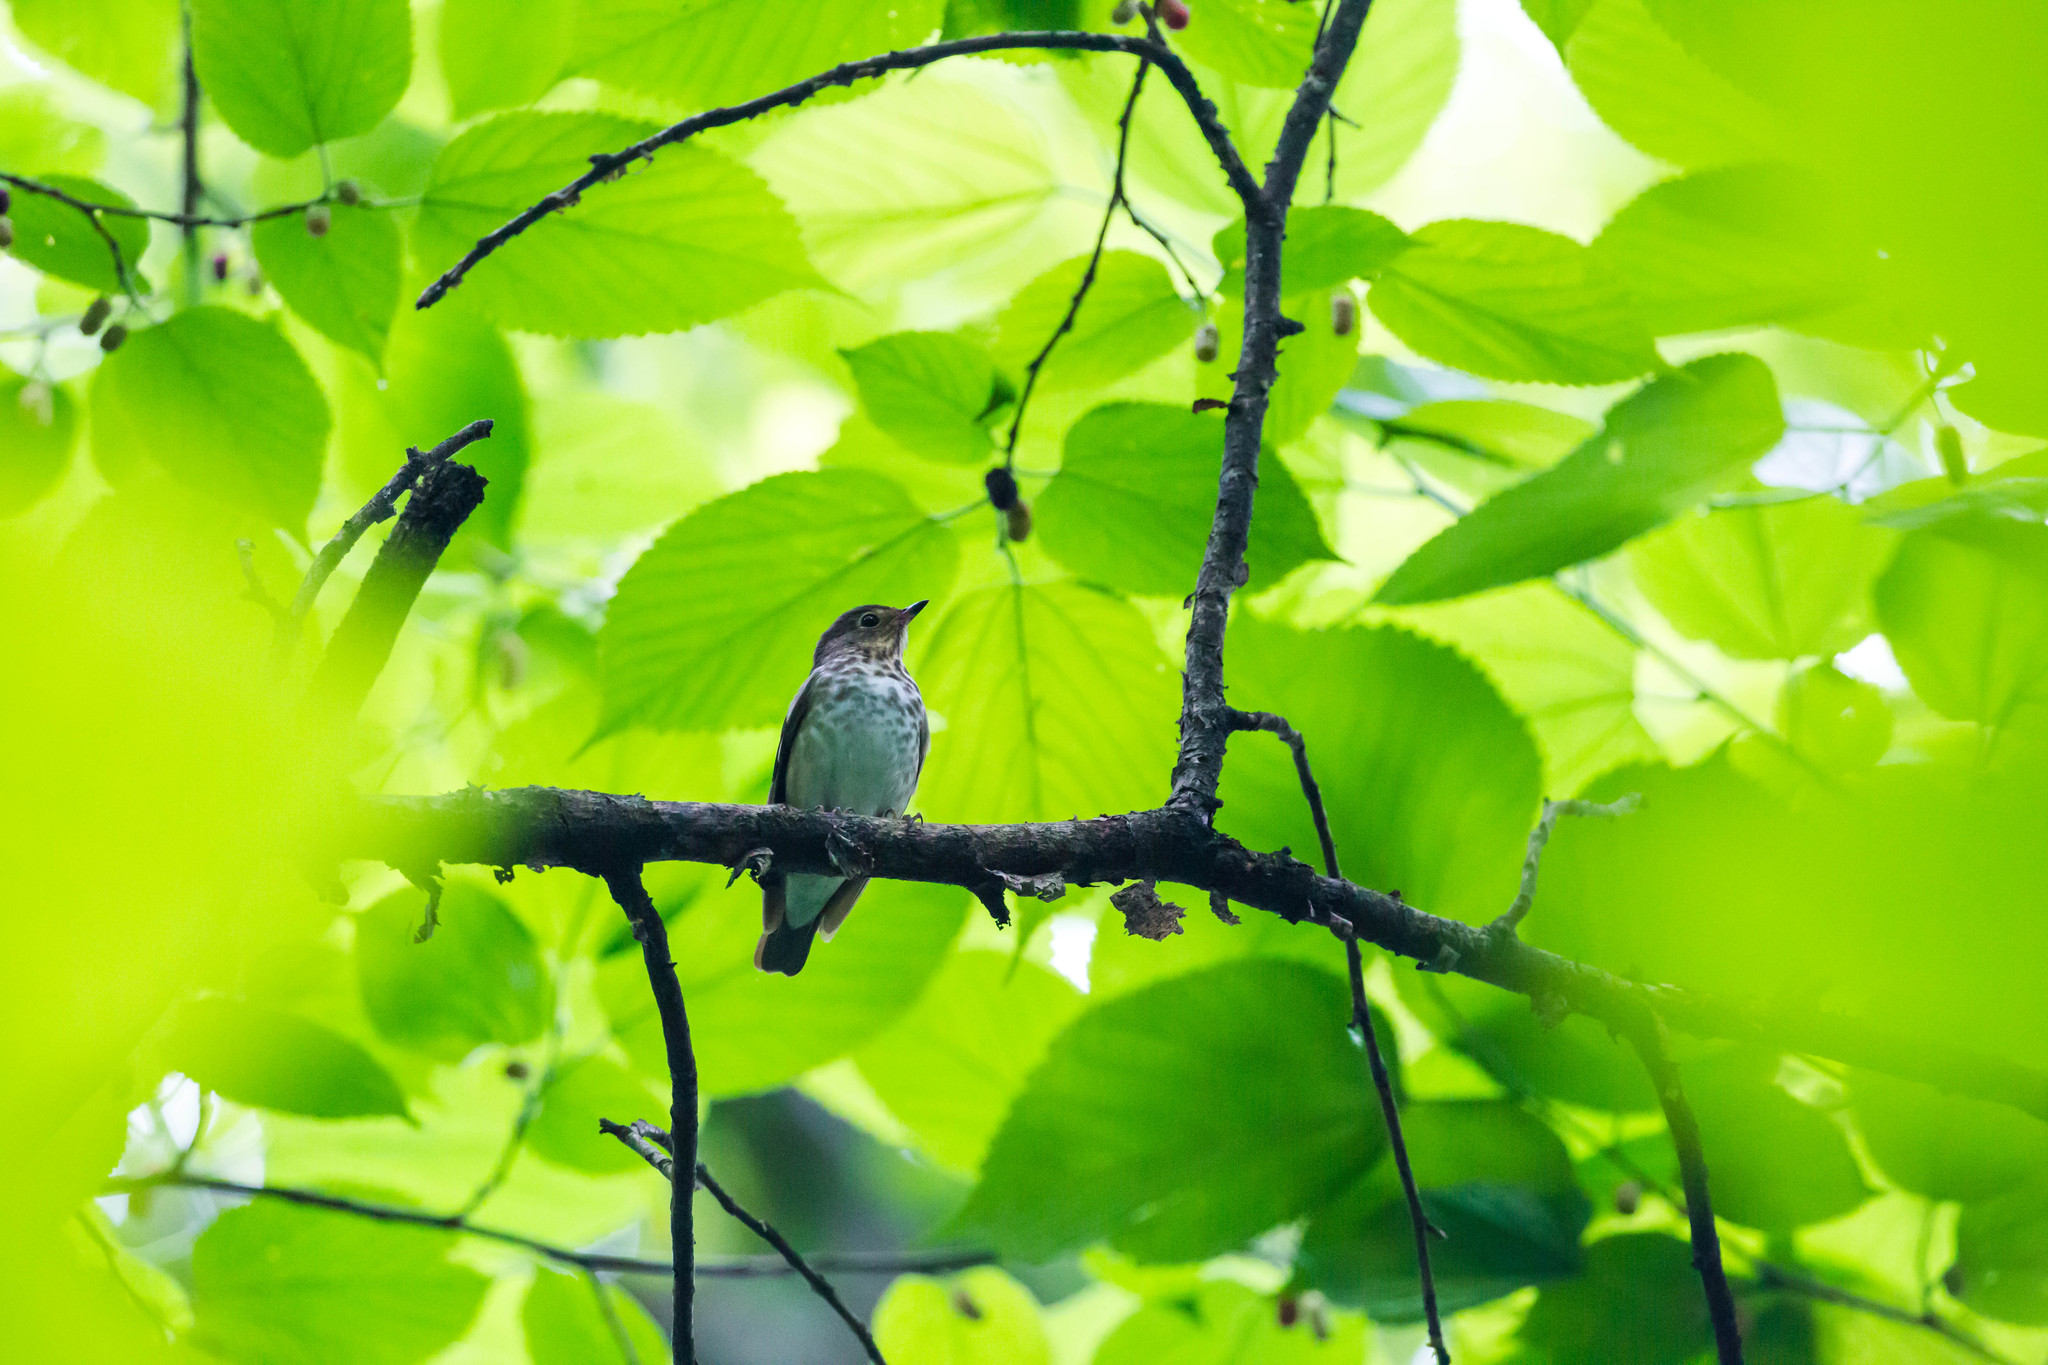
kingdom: Animalia
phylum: Chordata
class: Aves
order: Passeriformes
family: Turdidae
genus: Catharus
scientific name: Catharus ustulatus
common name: Swainson's thrush
